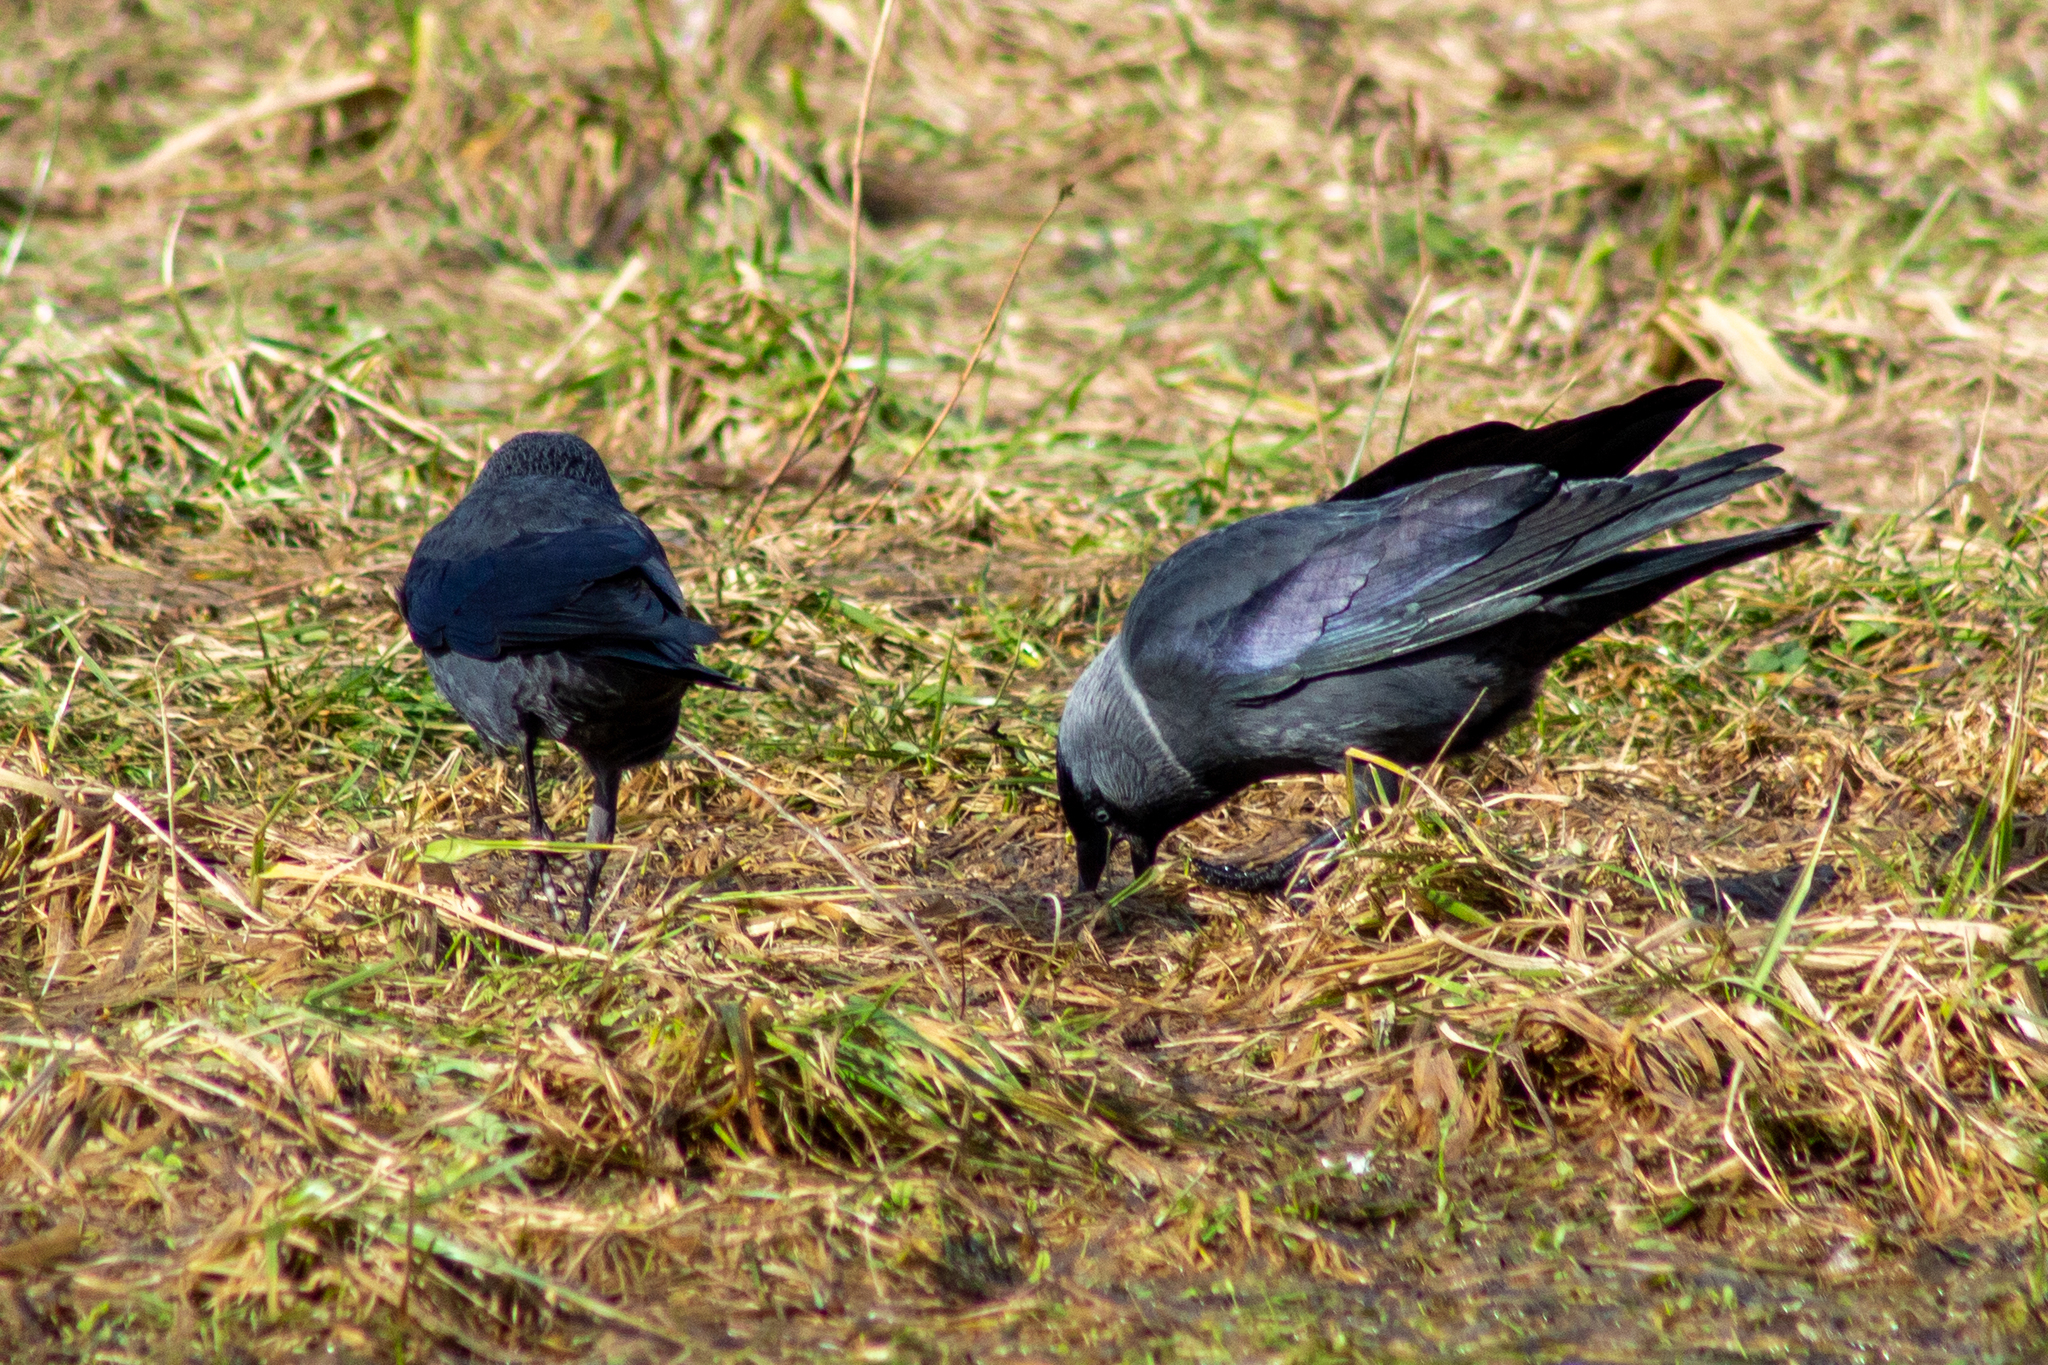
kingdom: Animalia
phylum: Chordata
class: Aves
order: Passeriformes
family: Corvidae
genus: Coloeus
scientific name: Coloeus monedula
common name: Western jackdaw
